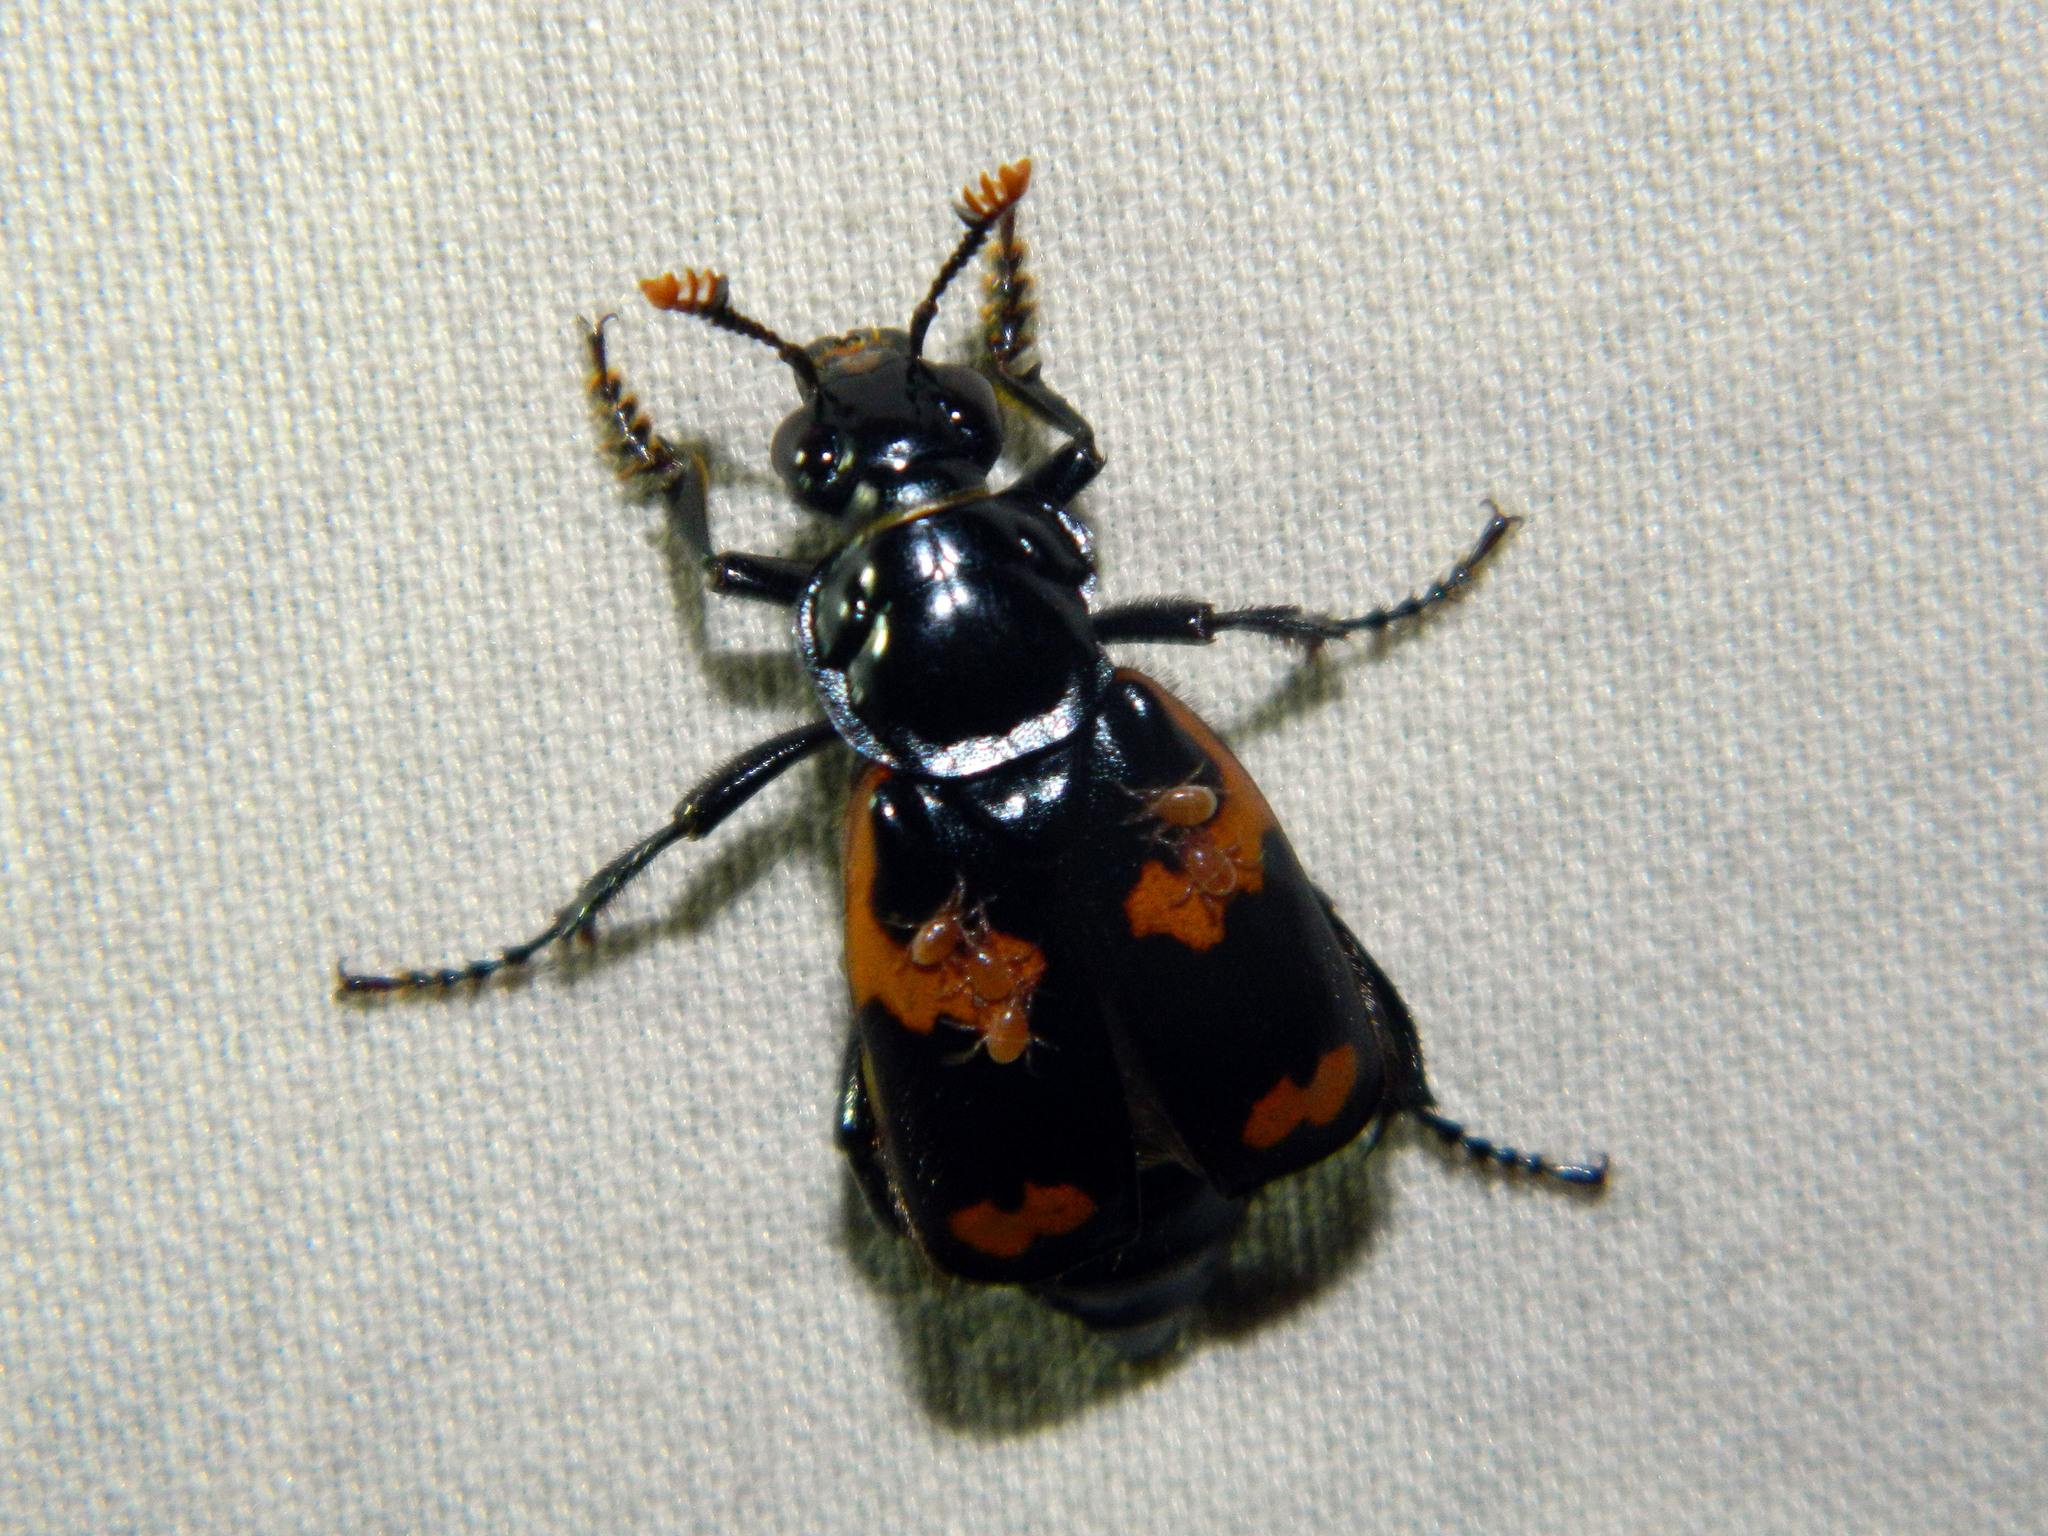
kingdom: Animalia
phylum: Arthropoda
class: Insecta
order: Coleoptera
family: Staphylinidae
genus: Nicrophorus
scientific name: Nicrophorus sayi
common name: Say's burying beetle
